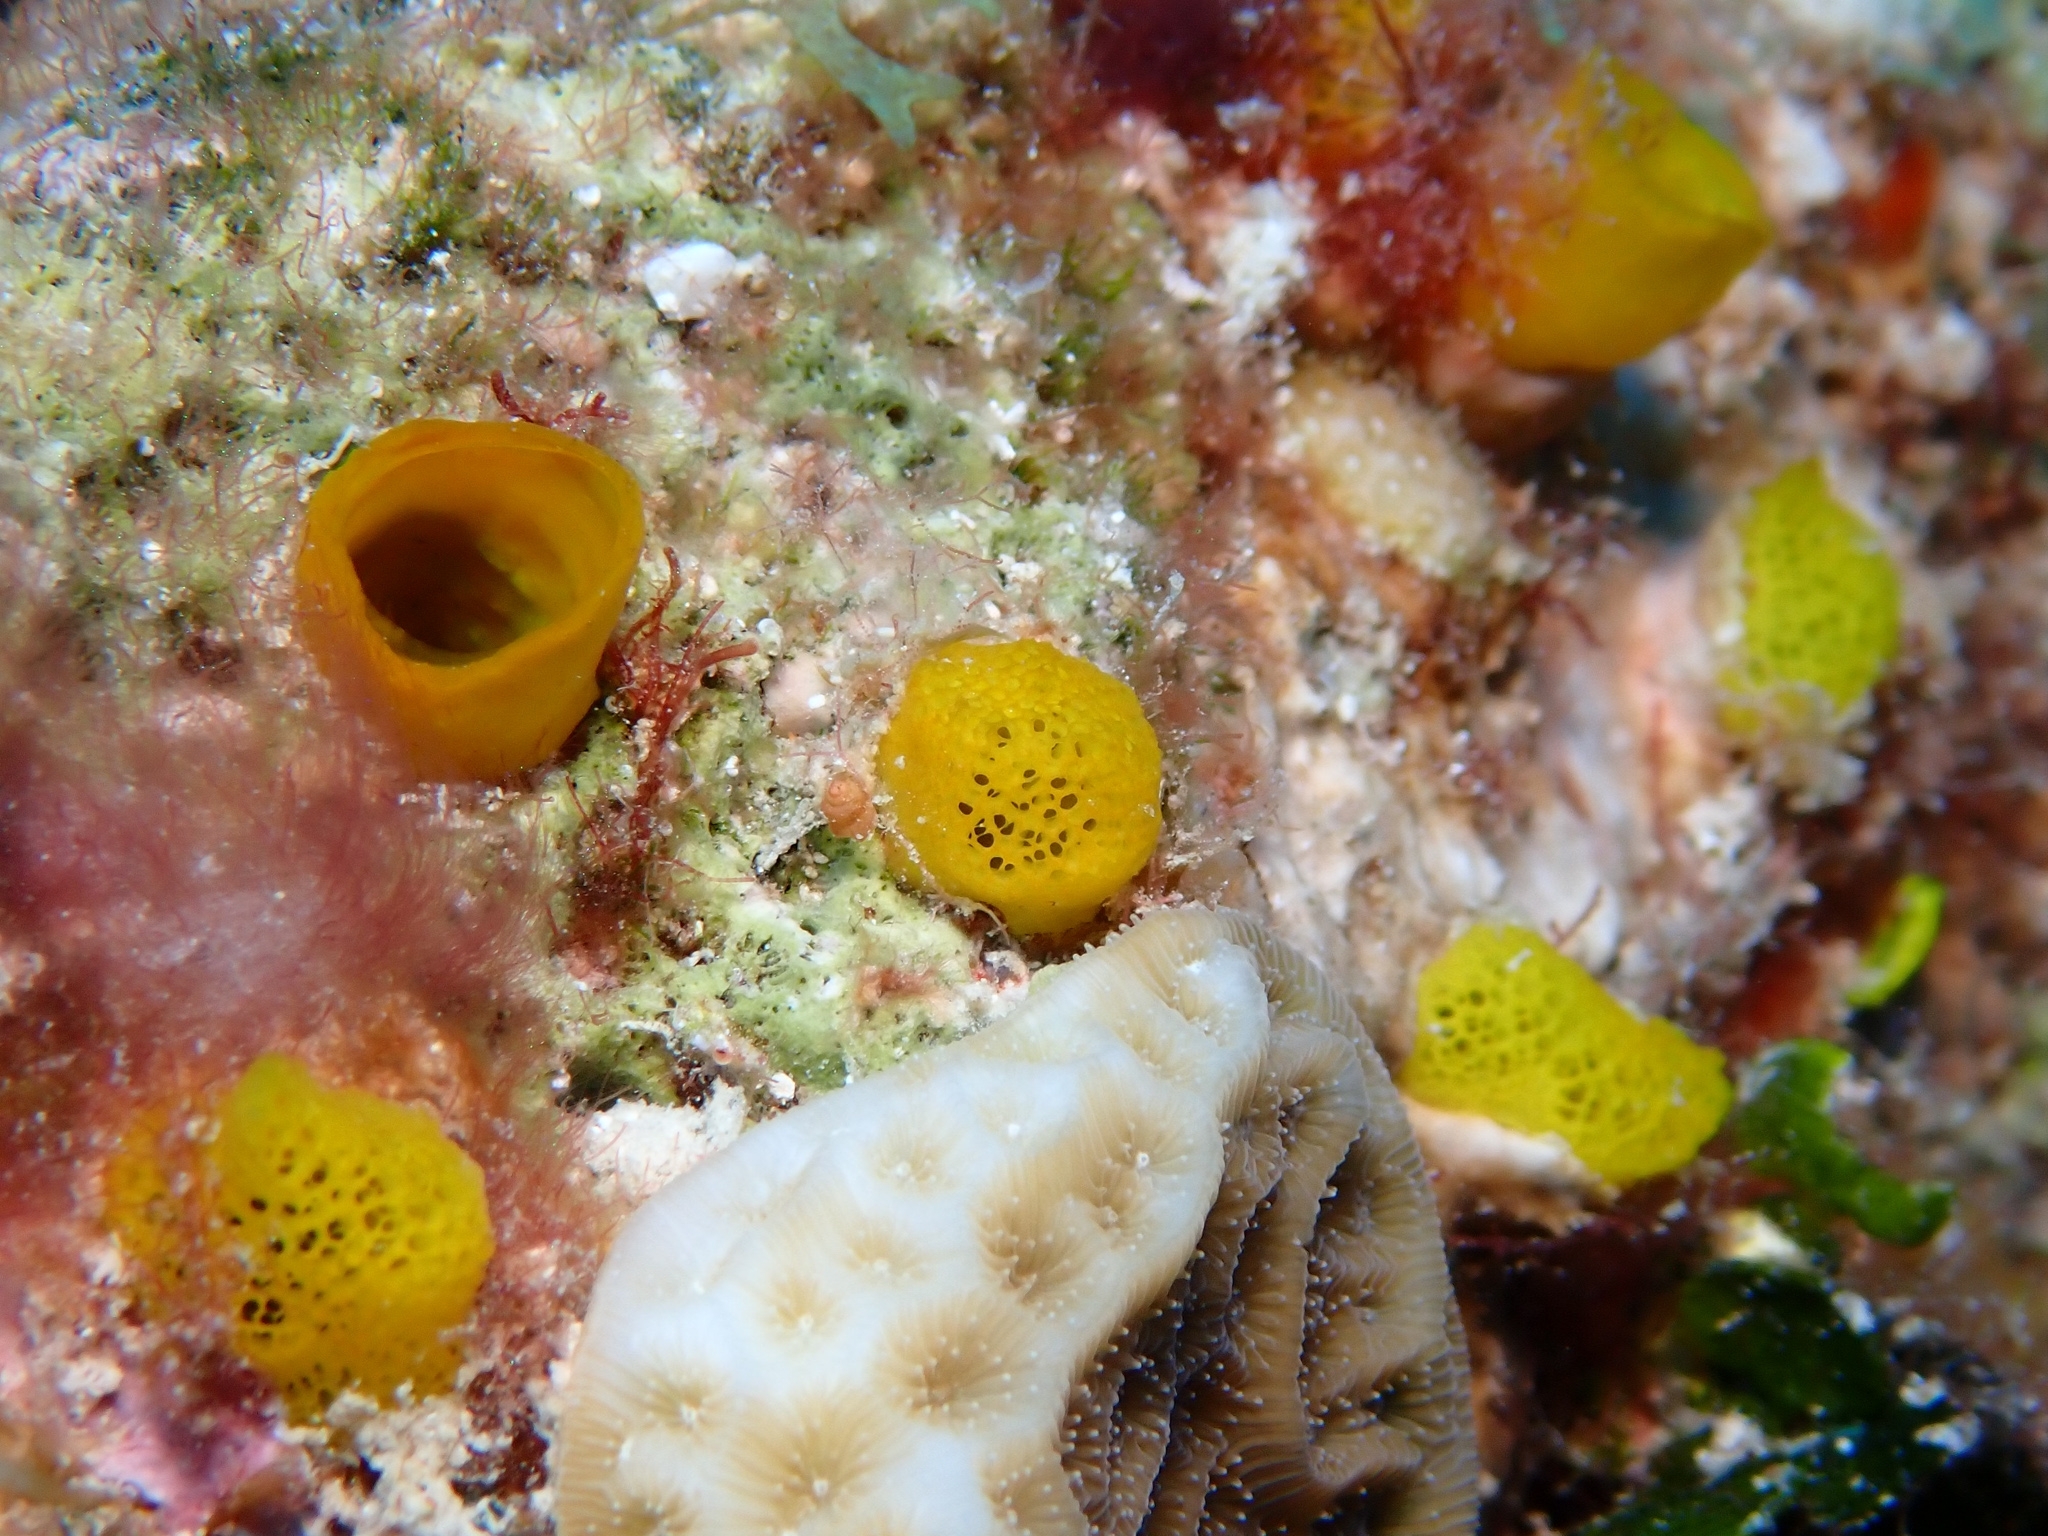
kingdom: Animalia
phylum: Porifera
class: Demospongiae
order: Haplosclerida
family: Phloeodictyidae
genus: Siphonodictyon
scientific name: Siphonodictyon brevitubulatum
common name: Short-tubed boring sponge
